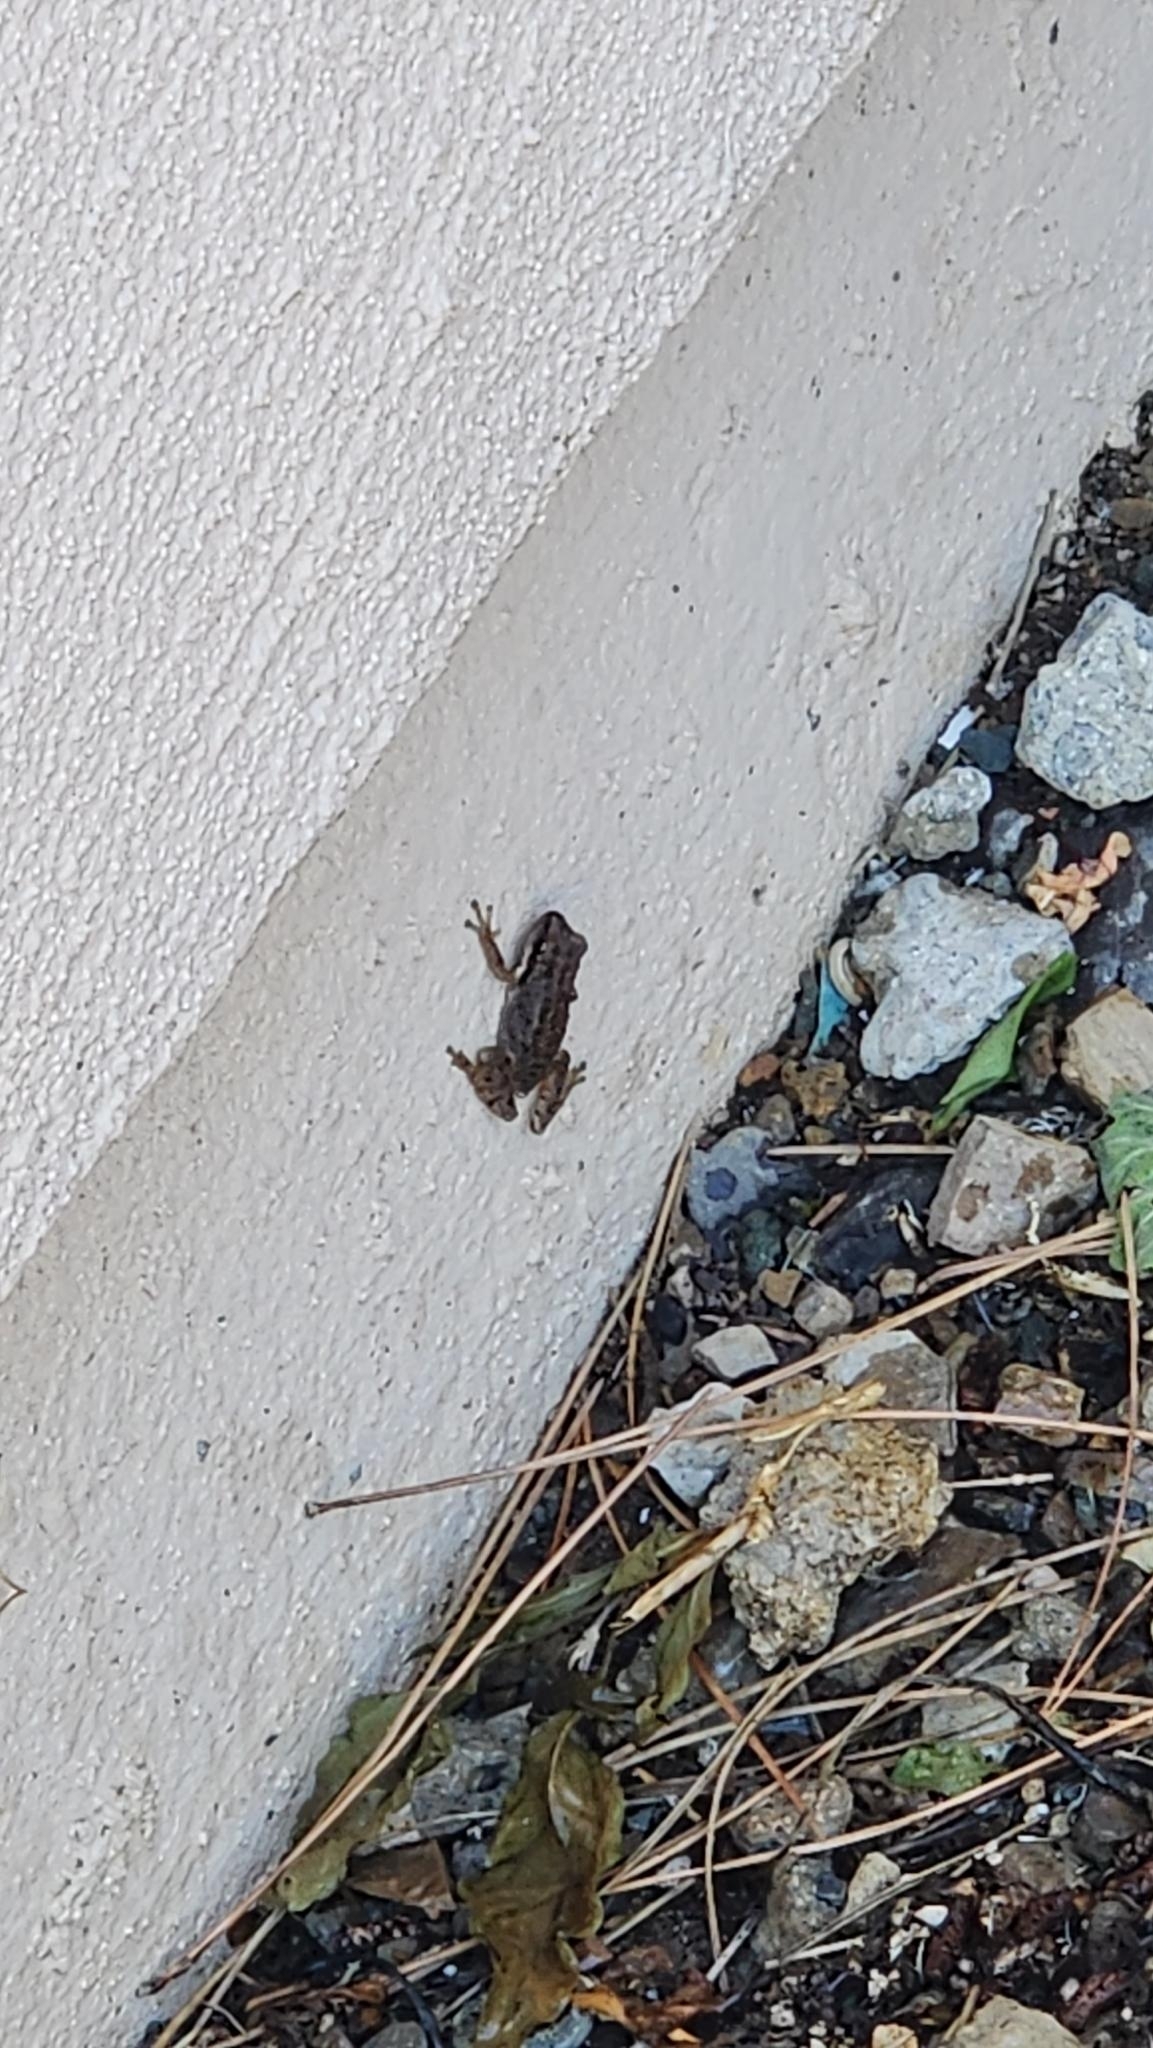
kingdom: Animalia
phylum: Chordata
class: Amphibia
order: Anura
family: Hylidae
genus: Pseudacris
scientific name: Pseudacris regilla
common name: Pacific chorus frog
